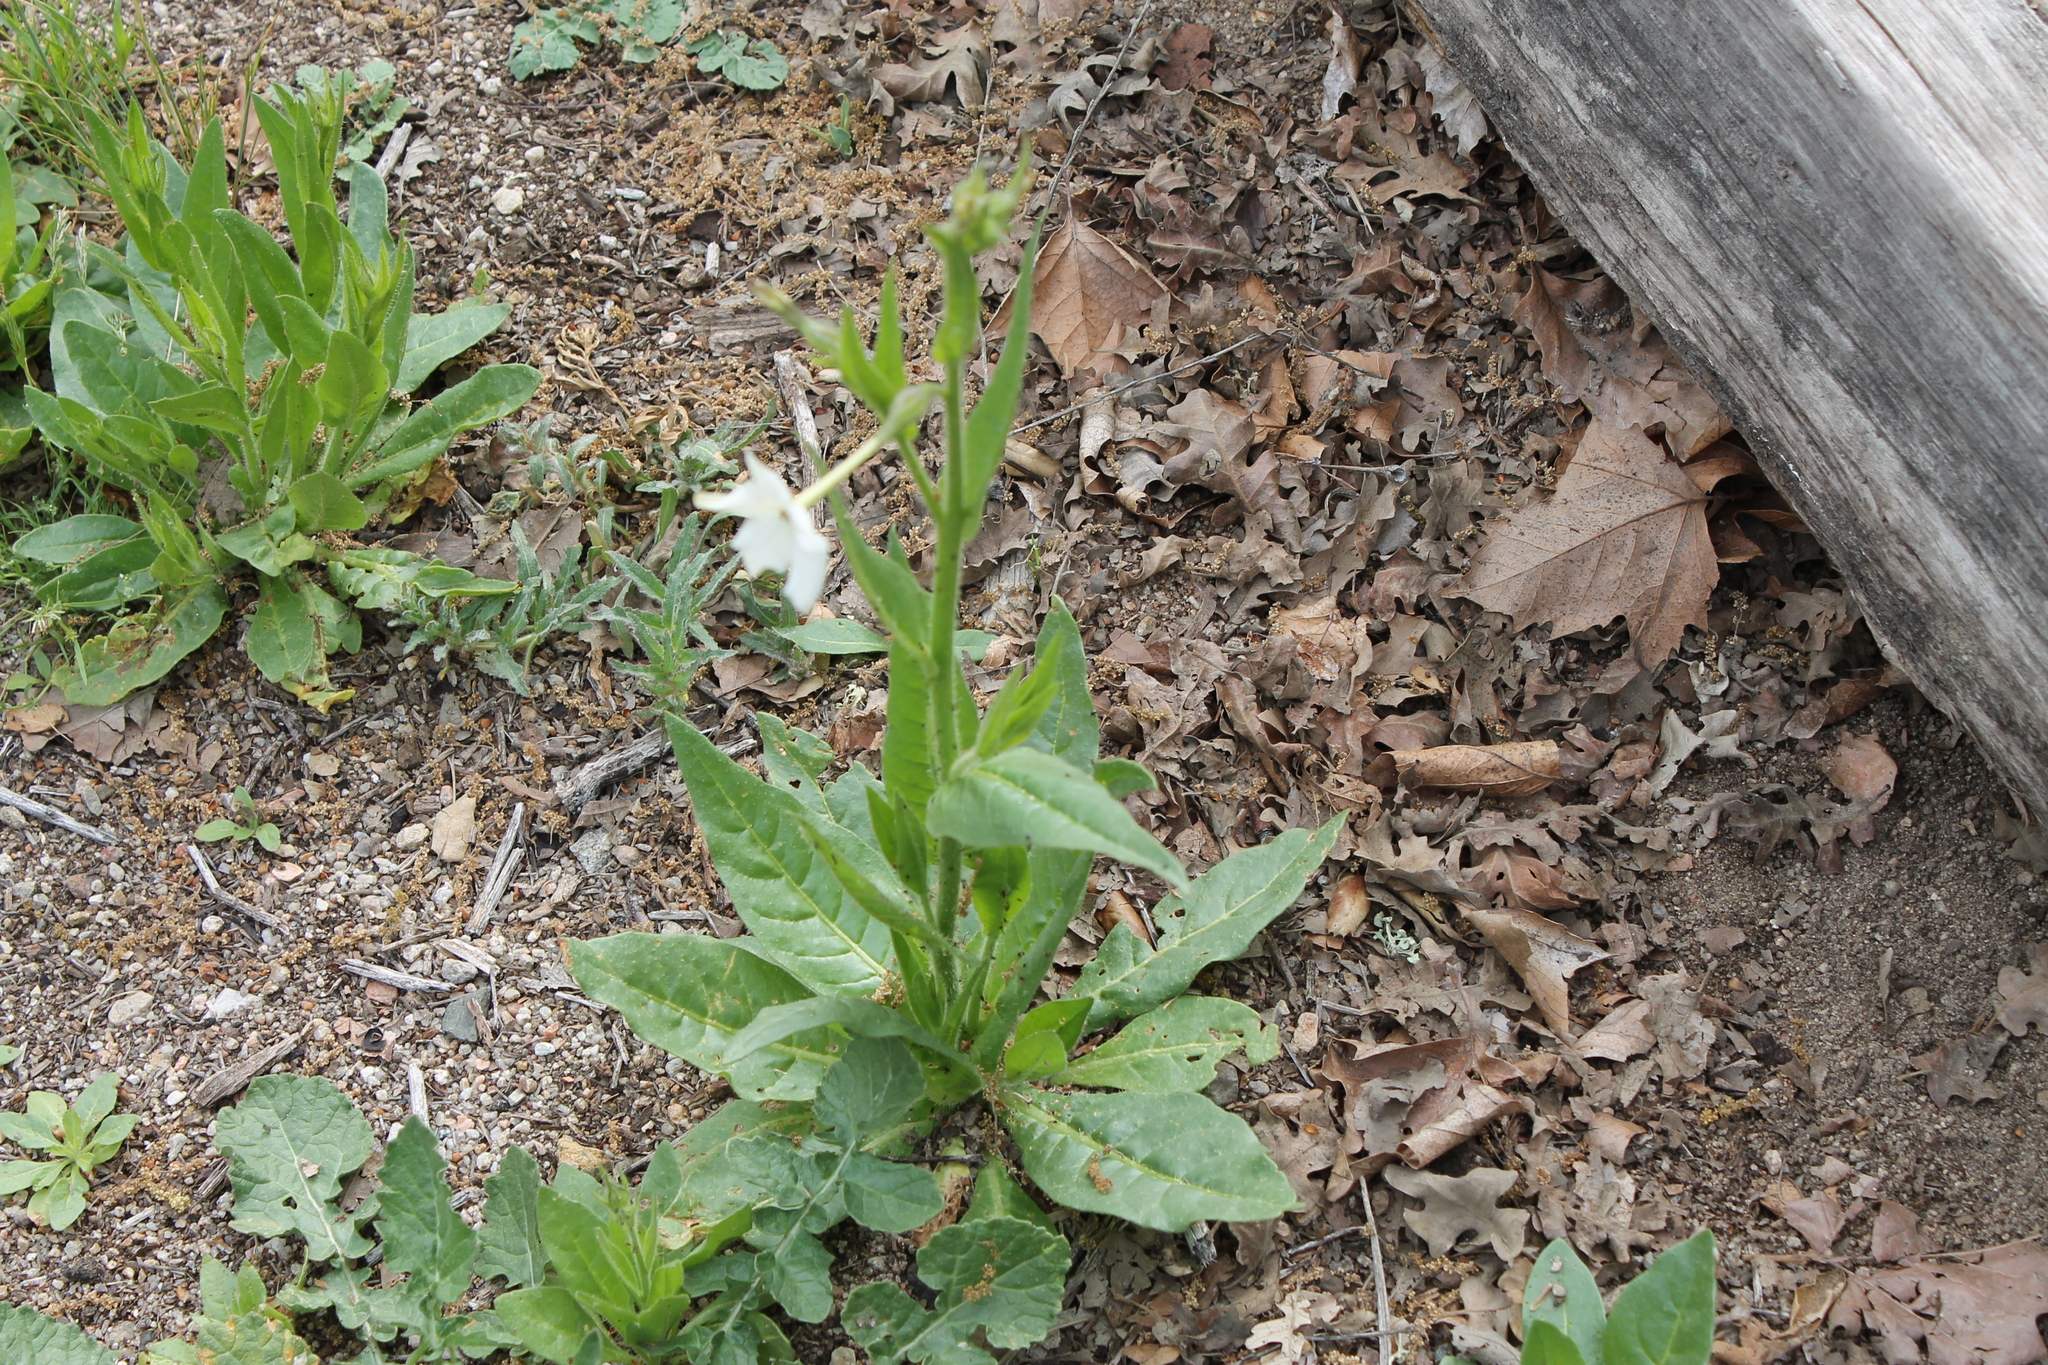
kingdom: Plantae
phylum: Tracheophyta
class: Magnoliopsida
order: Solanales
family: Solanaceae
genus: Nicotiana
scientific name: Nicotiana quadrivalvis
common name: Indian tobacco
